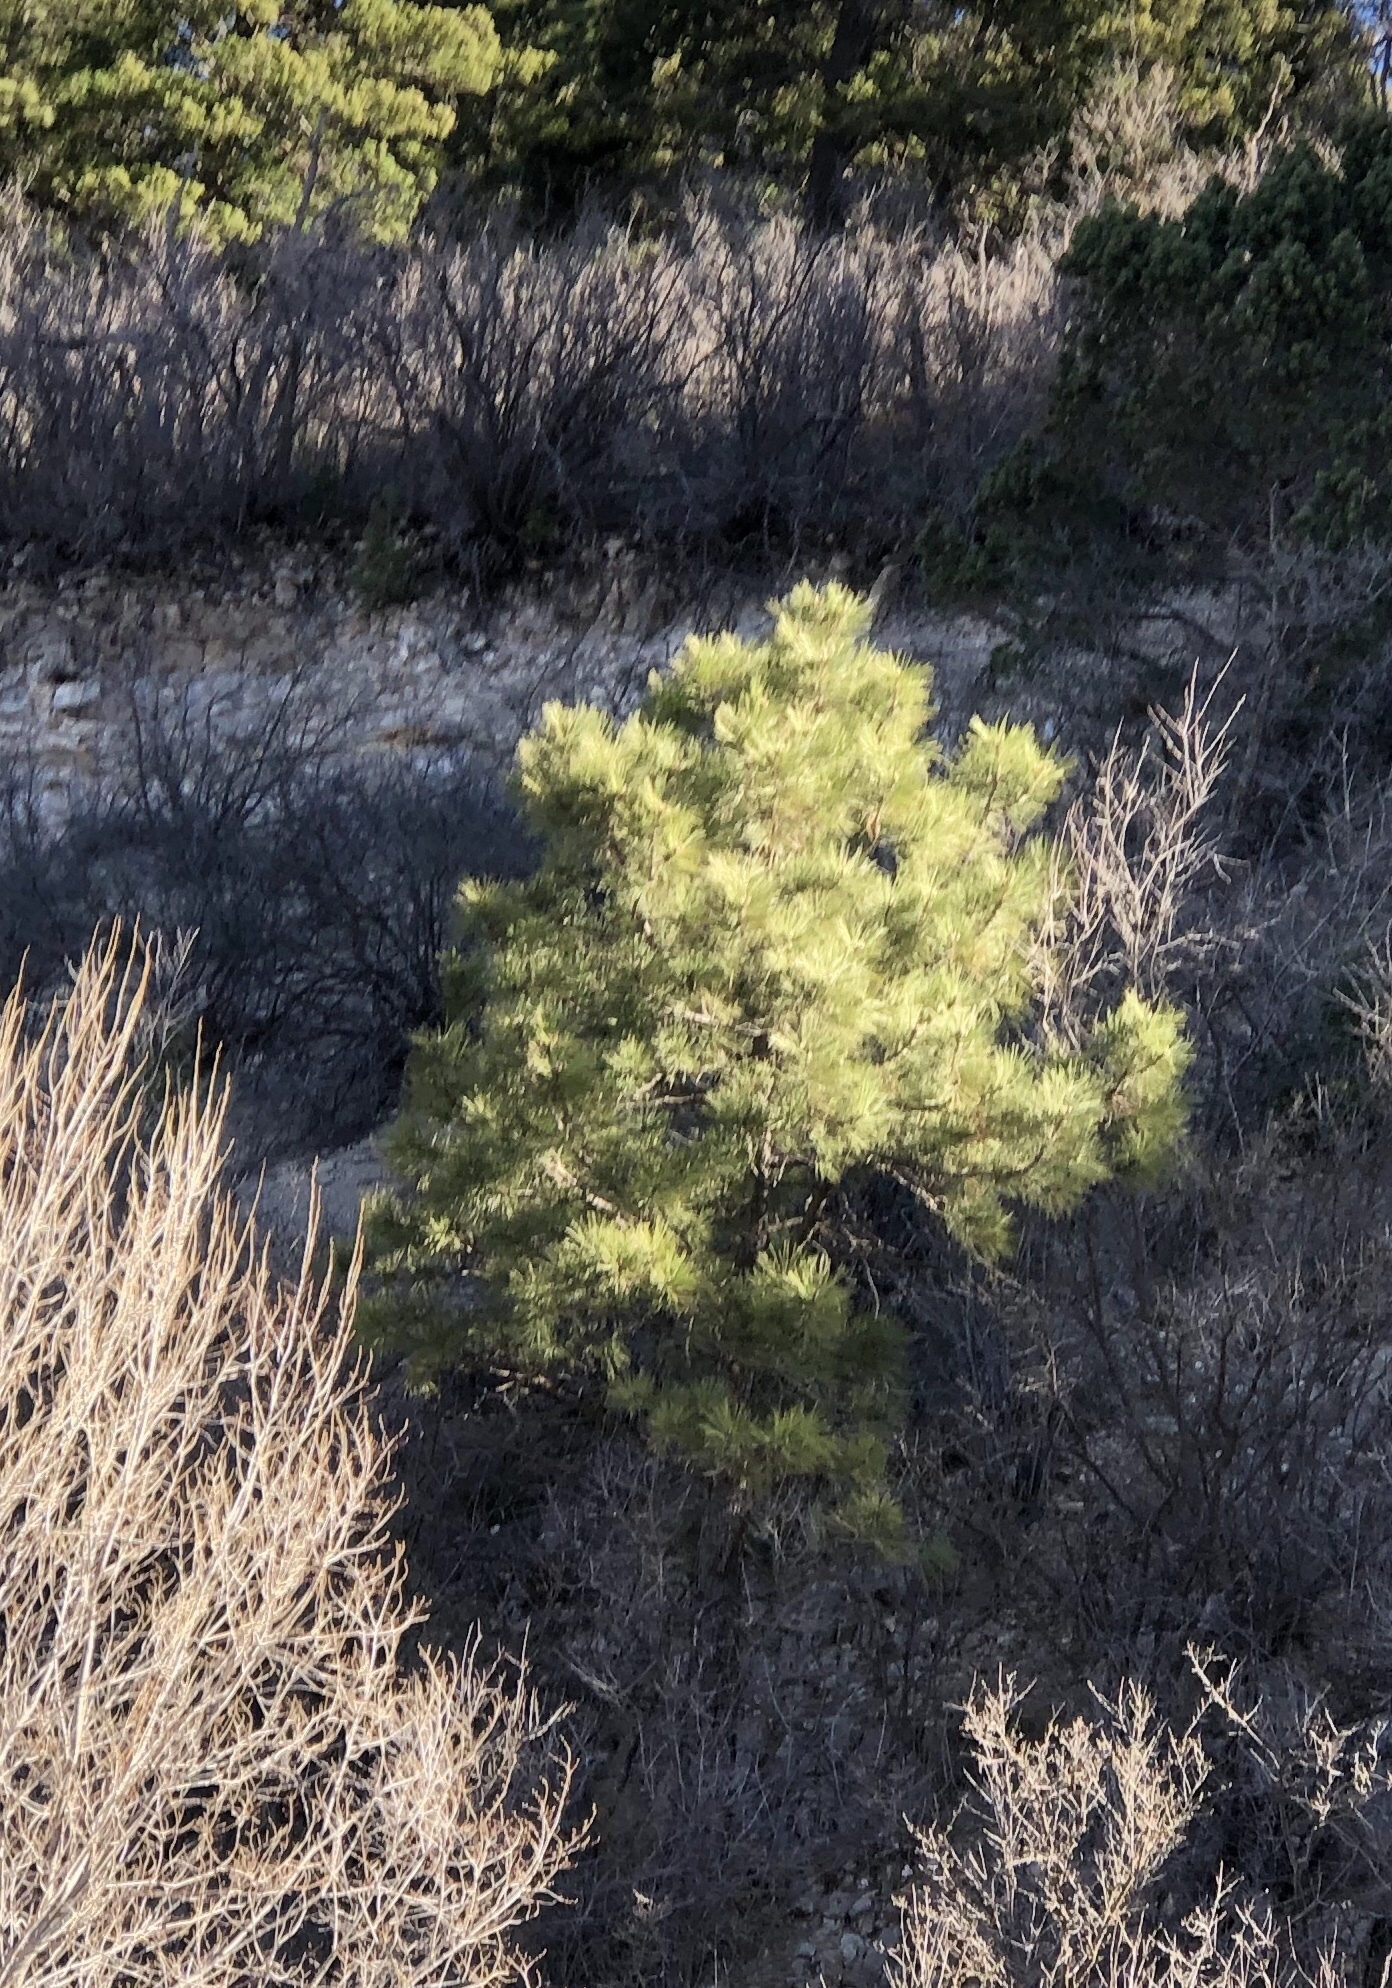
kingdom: Plantae
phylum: Tracheophyta
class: Pinopsida
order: Pinales
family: Pinaceae
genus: Pinus
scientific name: Pinus ponderosa
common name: Western yellow-pine
